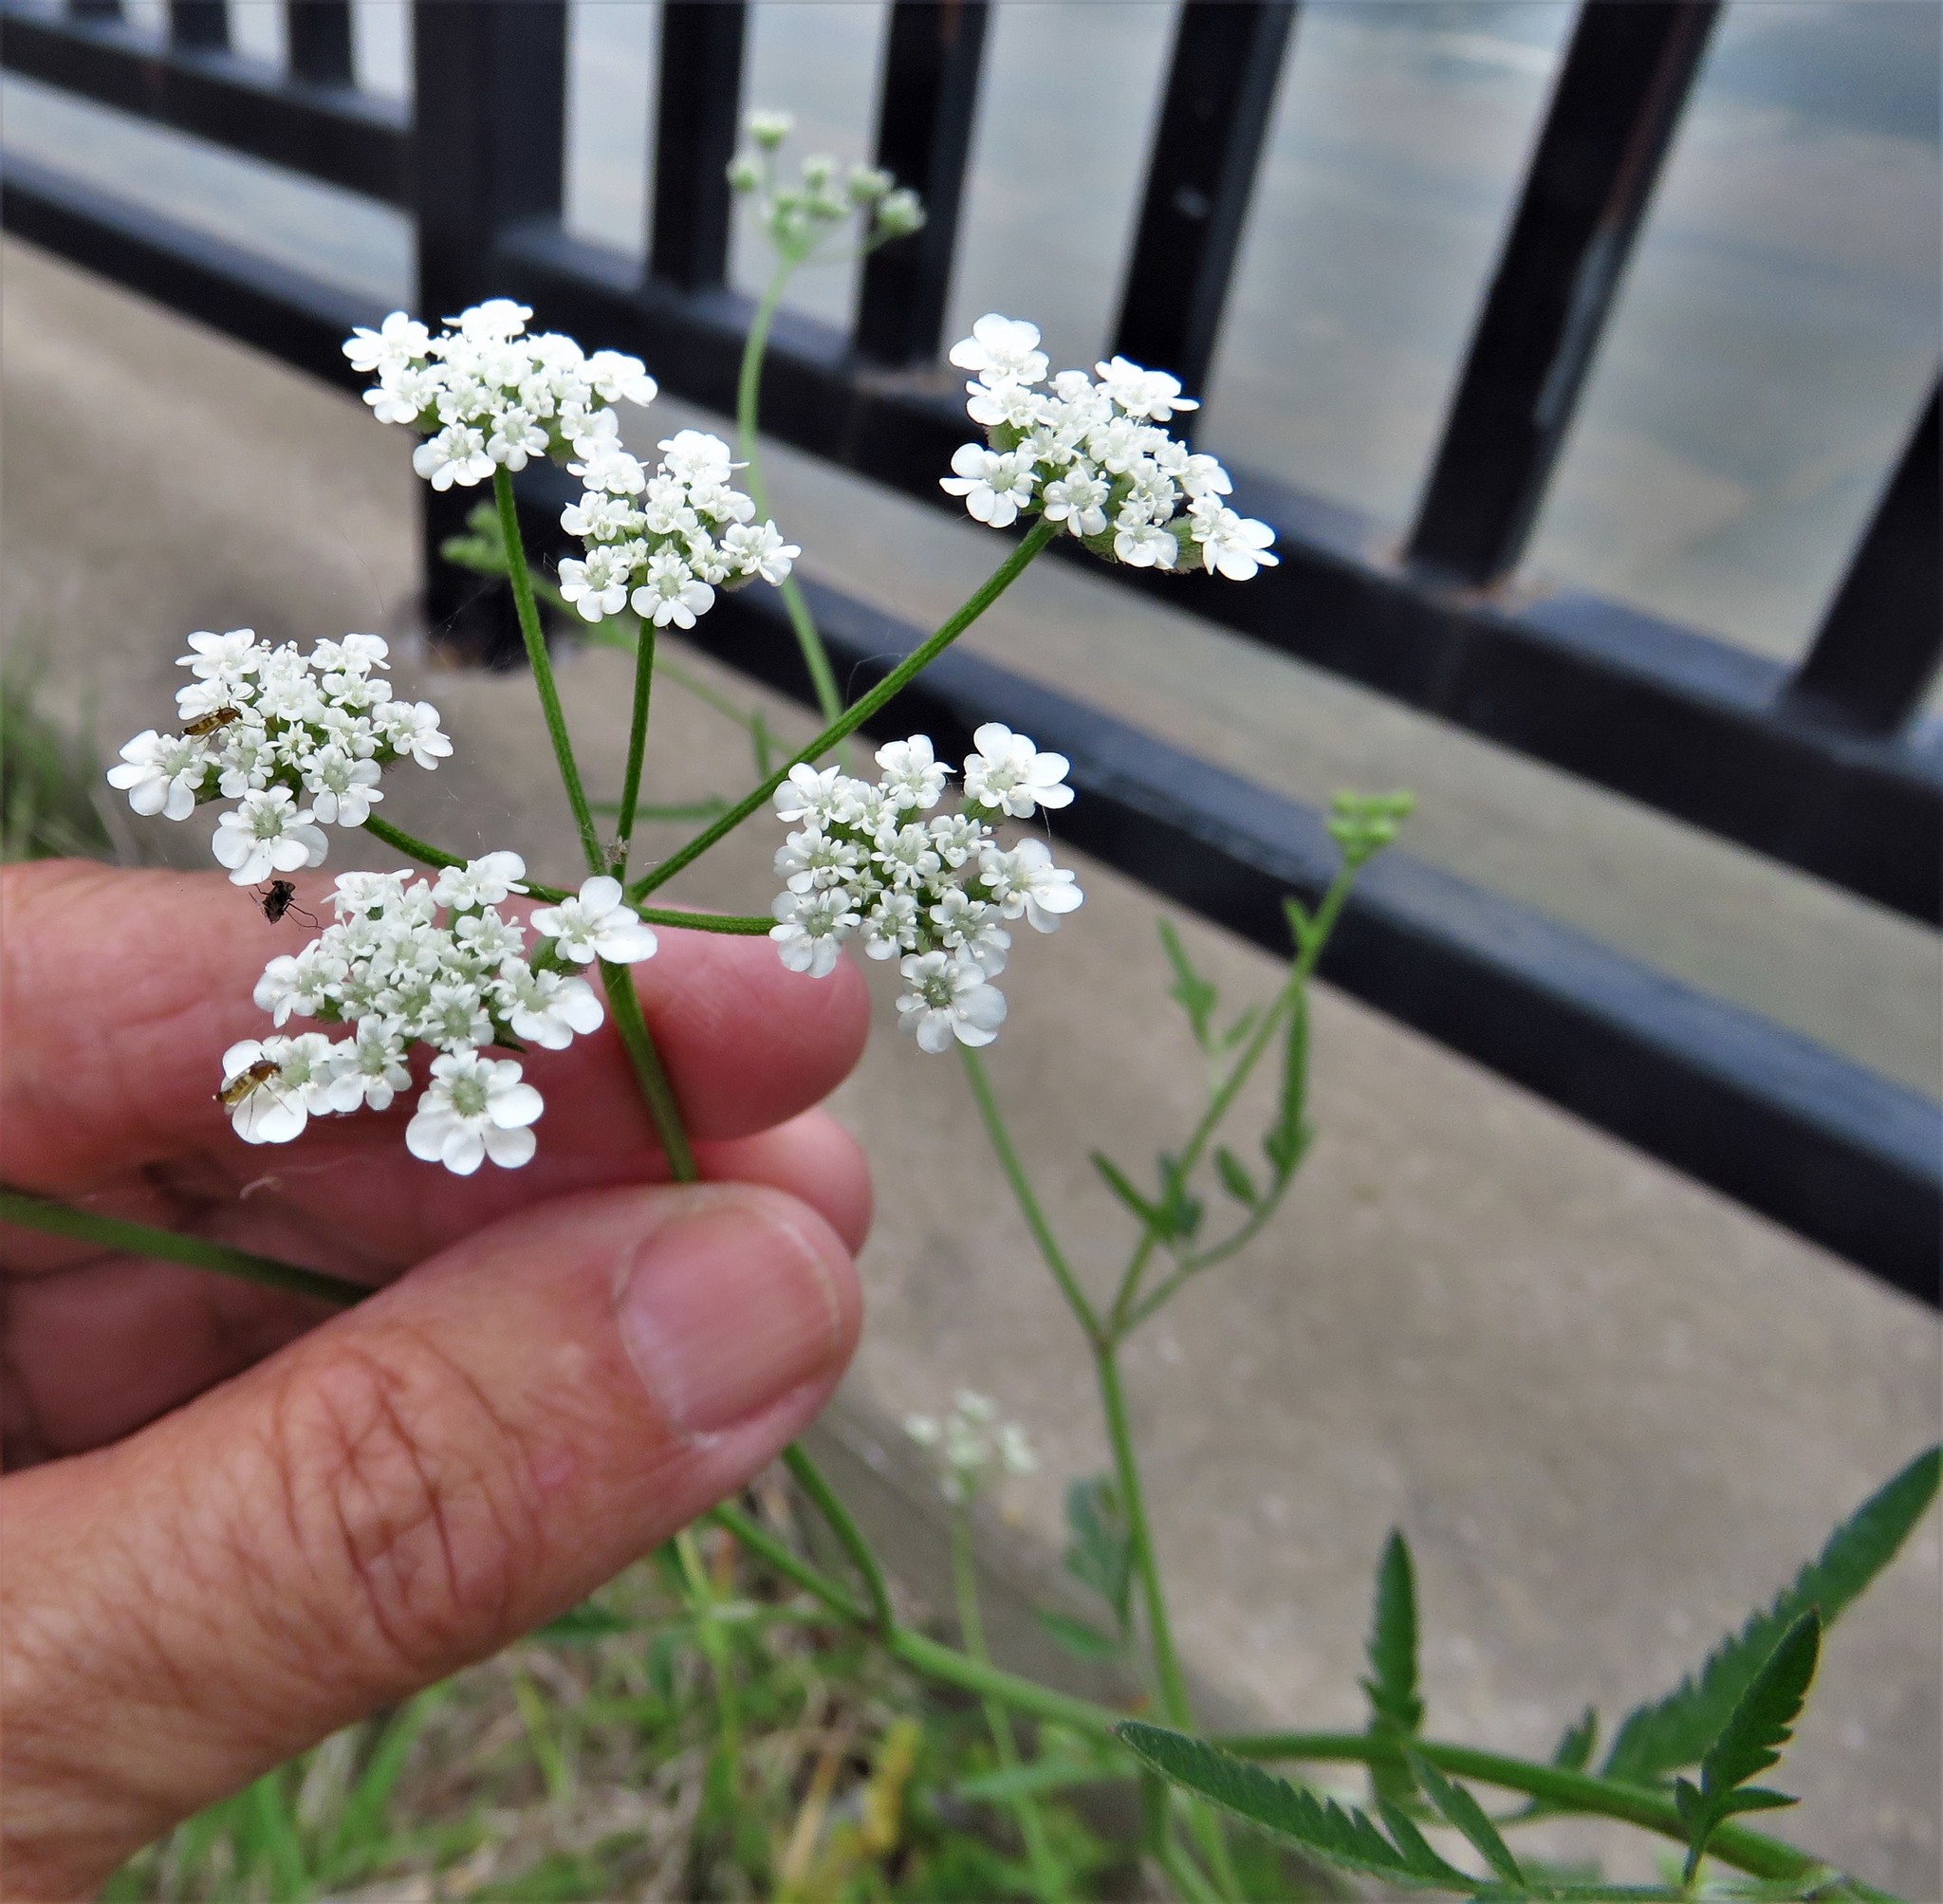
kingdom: Plantae
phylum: Tracheophyta
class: Magnoliopsida
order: Apiales
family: Apiaceae
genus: Torilis
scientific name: Torilis arvensis
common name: Spreading hedge-parsley
